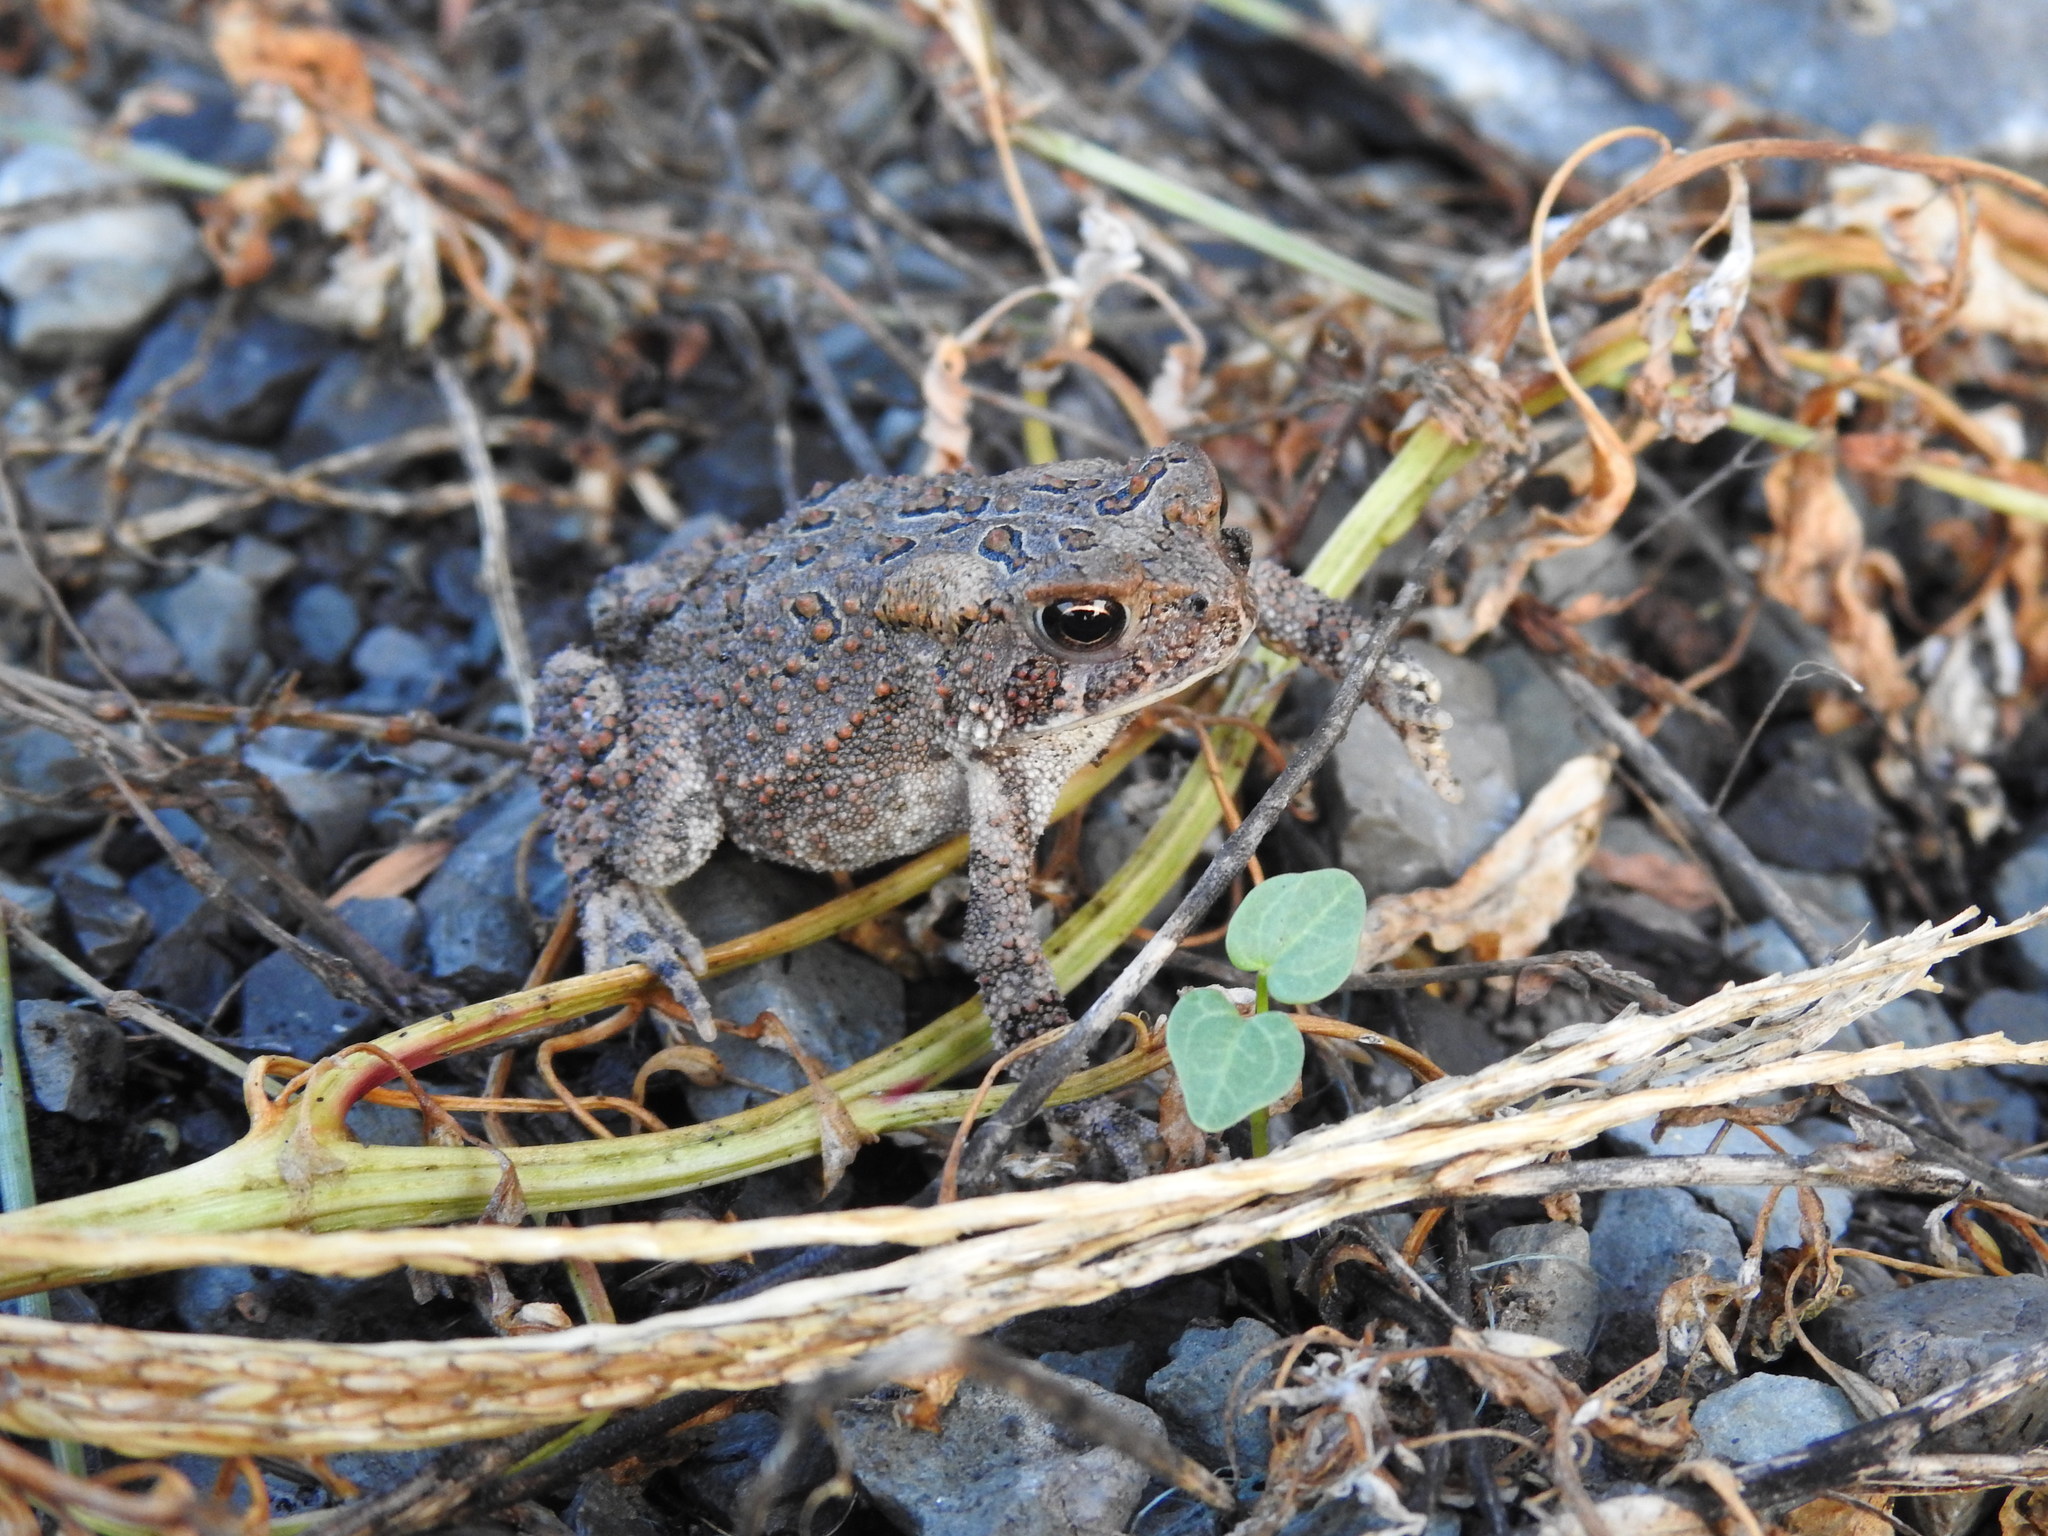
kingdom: Animalia
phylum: Chordata
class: Amphibia
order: Anura
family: Bufonidae
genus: Anaxyrus
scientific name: Anaxyrus americanus
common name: American toad
